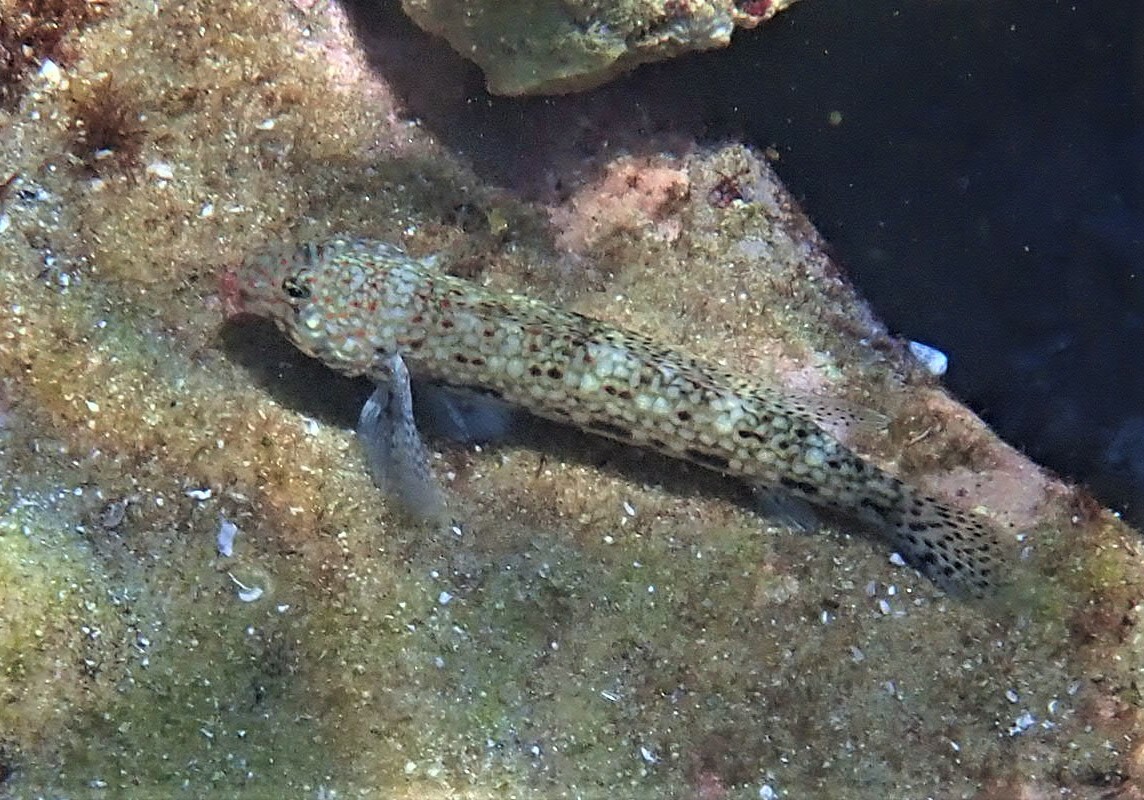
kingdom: Animalia
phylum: Chordata
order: Perciformes
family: Gobiidae
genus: Istigobius
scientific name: Istigobius decoratus
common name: Decorated goby
